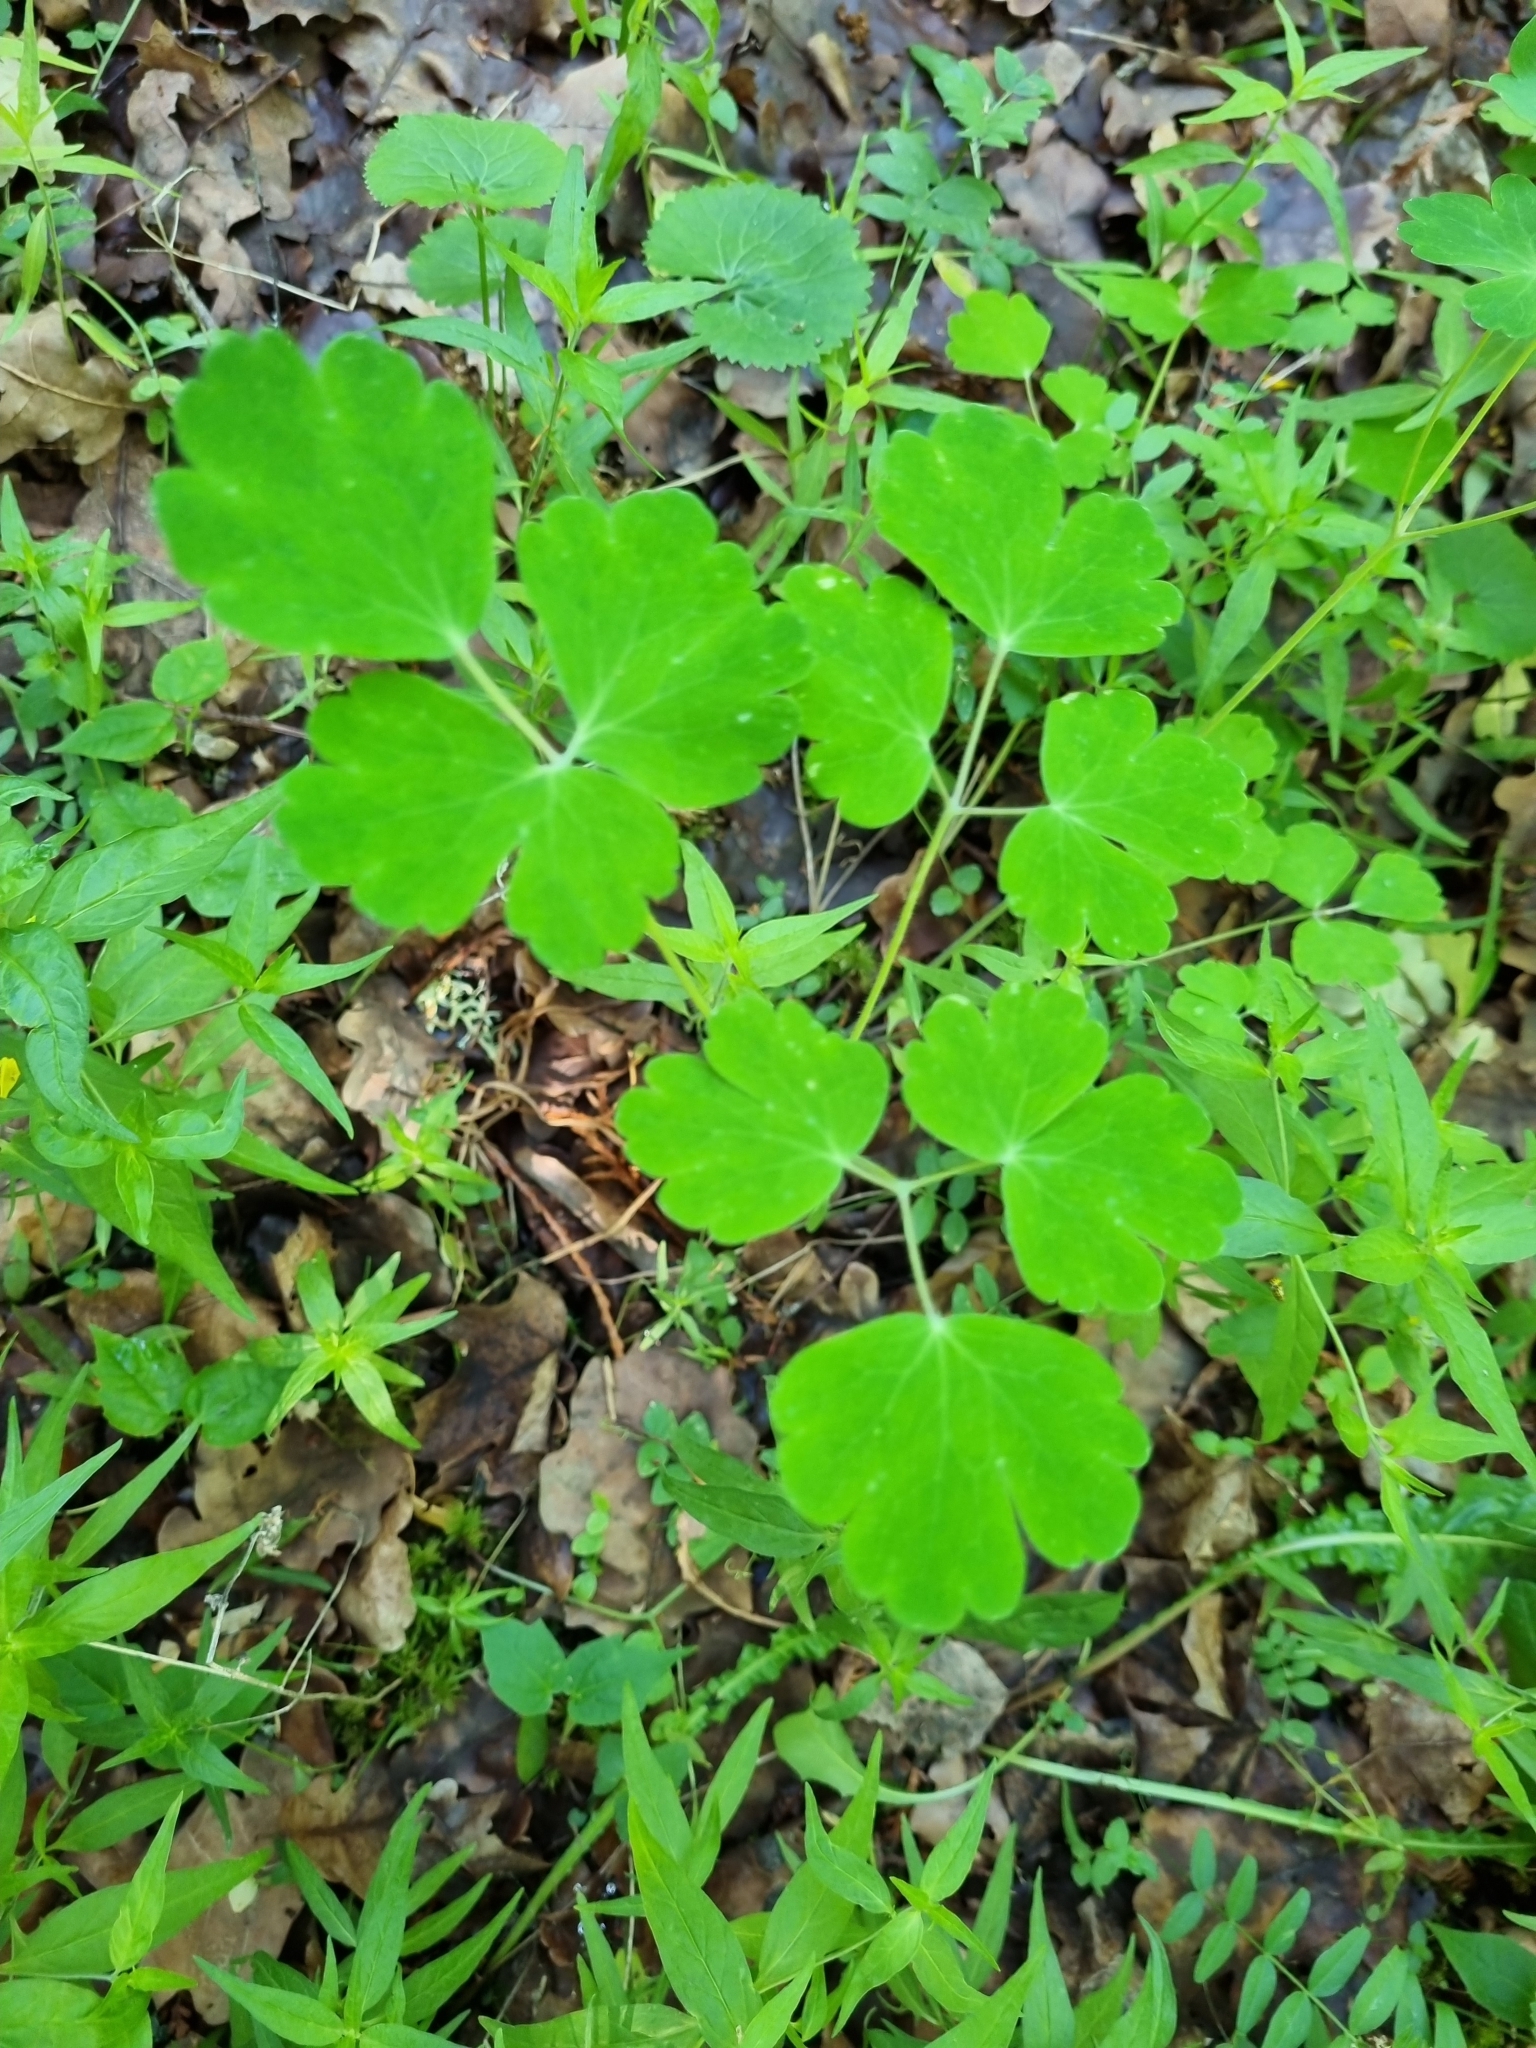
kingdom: Plantae
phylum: Tracheophyta
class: Magnoliopsida
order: Ranunculales
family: Ranunculaceae
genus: Aquilegia
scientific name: Aquilegia vulgaris
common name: Columbine
